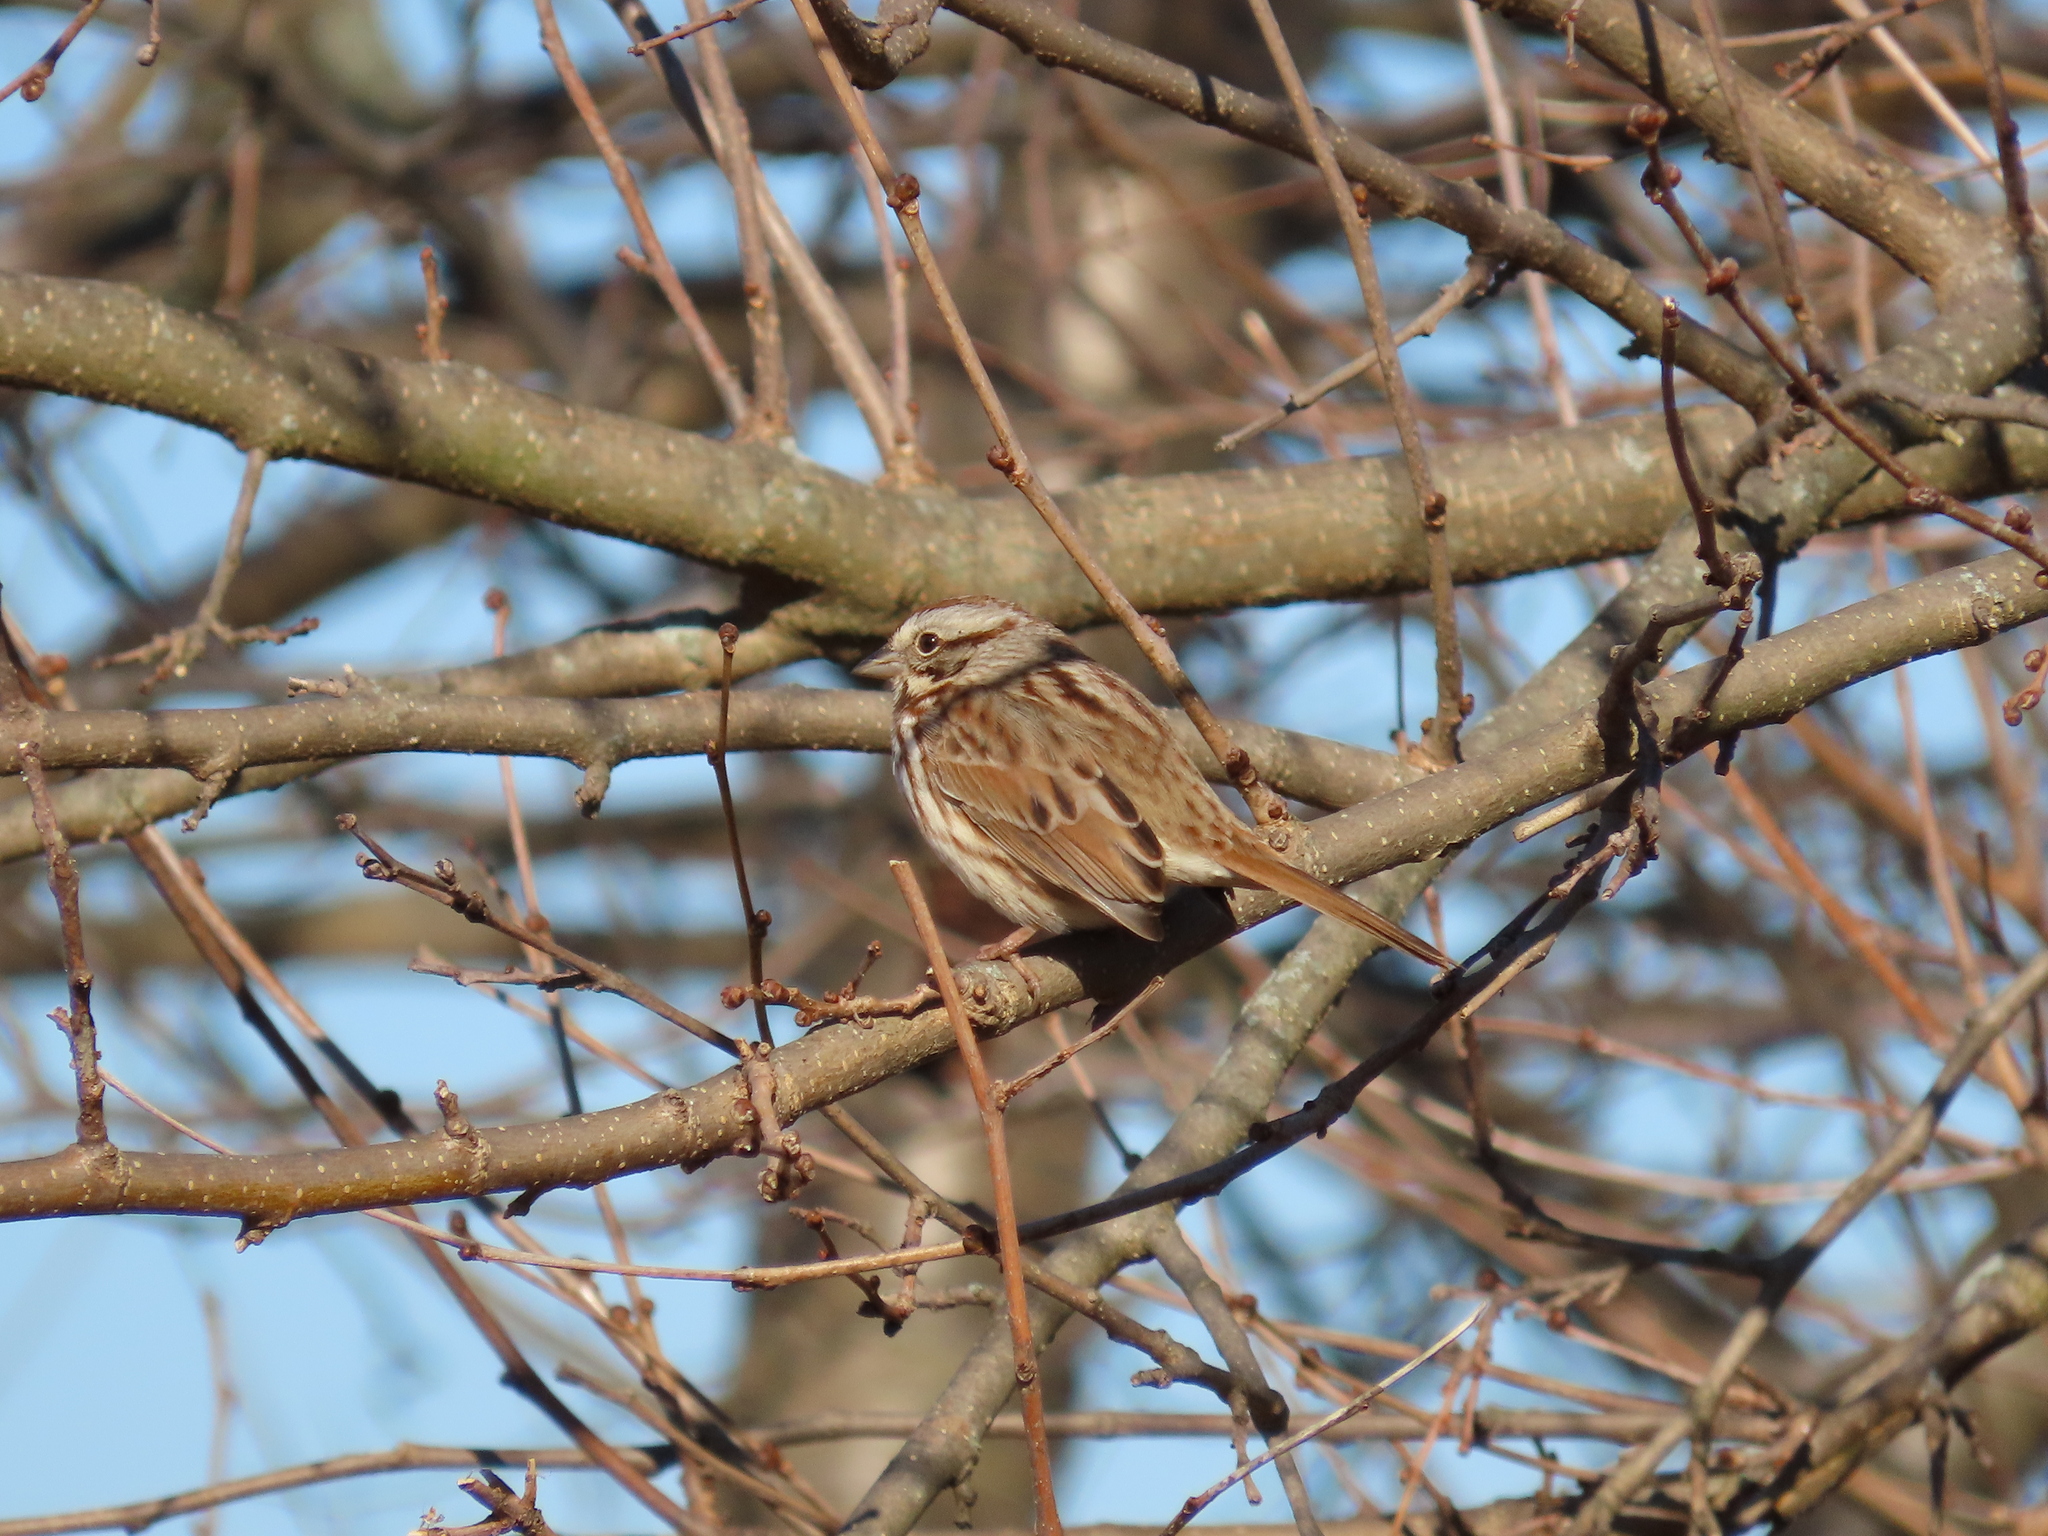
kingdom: Animalia
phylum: Chordata
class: Aves
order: Passeriformes
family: Passerellidae
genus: Melospiza
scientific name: Melospiza melodia
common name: Song sparrow
